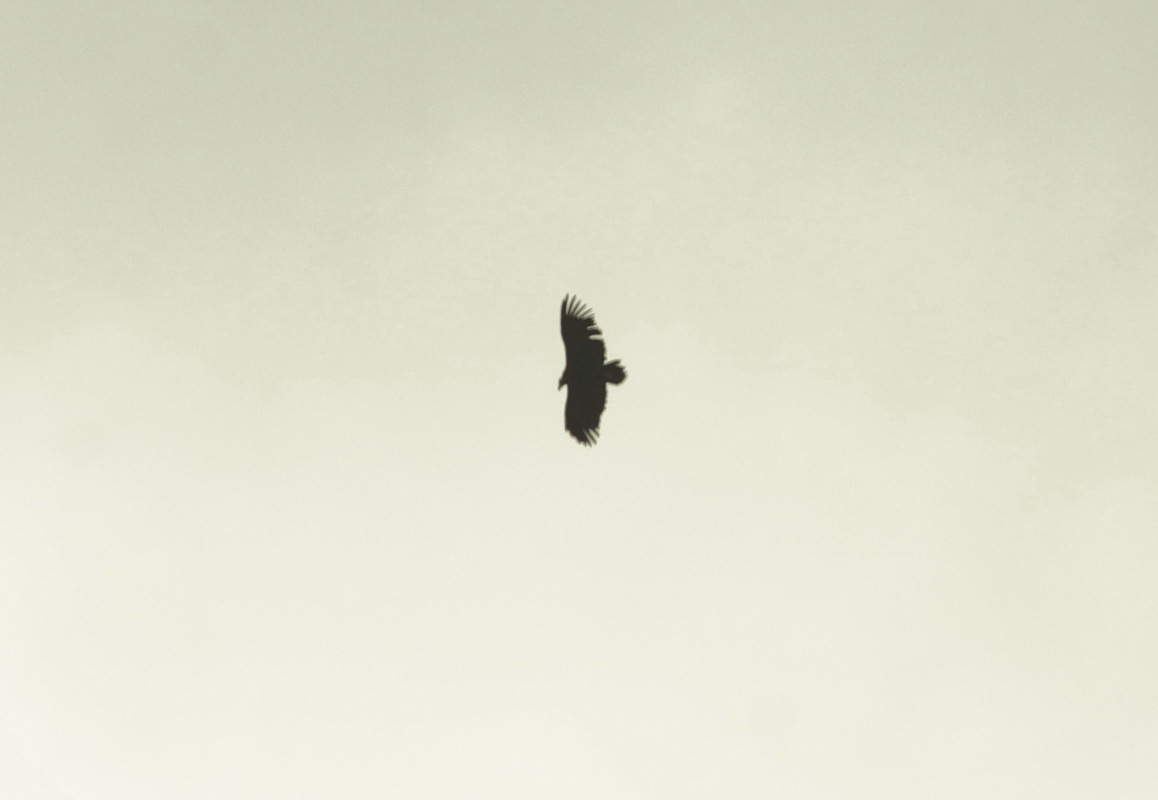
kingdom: Animalia
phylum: Chordata
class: Aves
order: Accipitriformes
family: Accipitridae
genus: Aegypius
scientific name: Aegypius monachus
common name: Cinereous vulture
